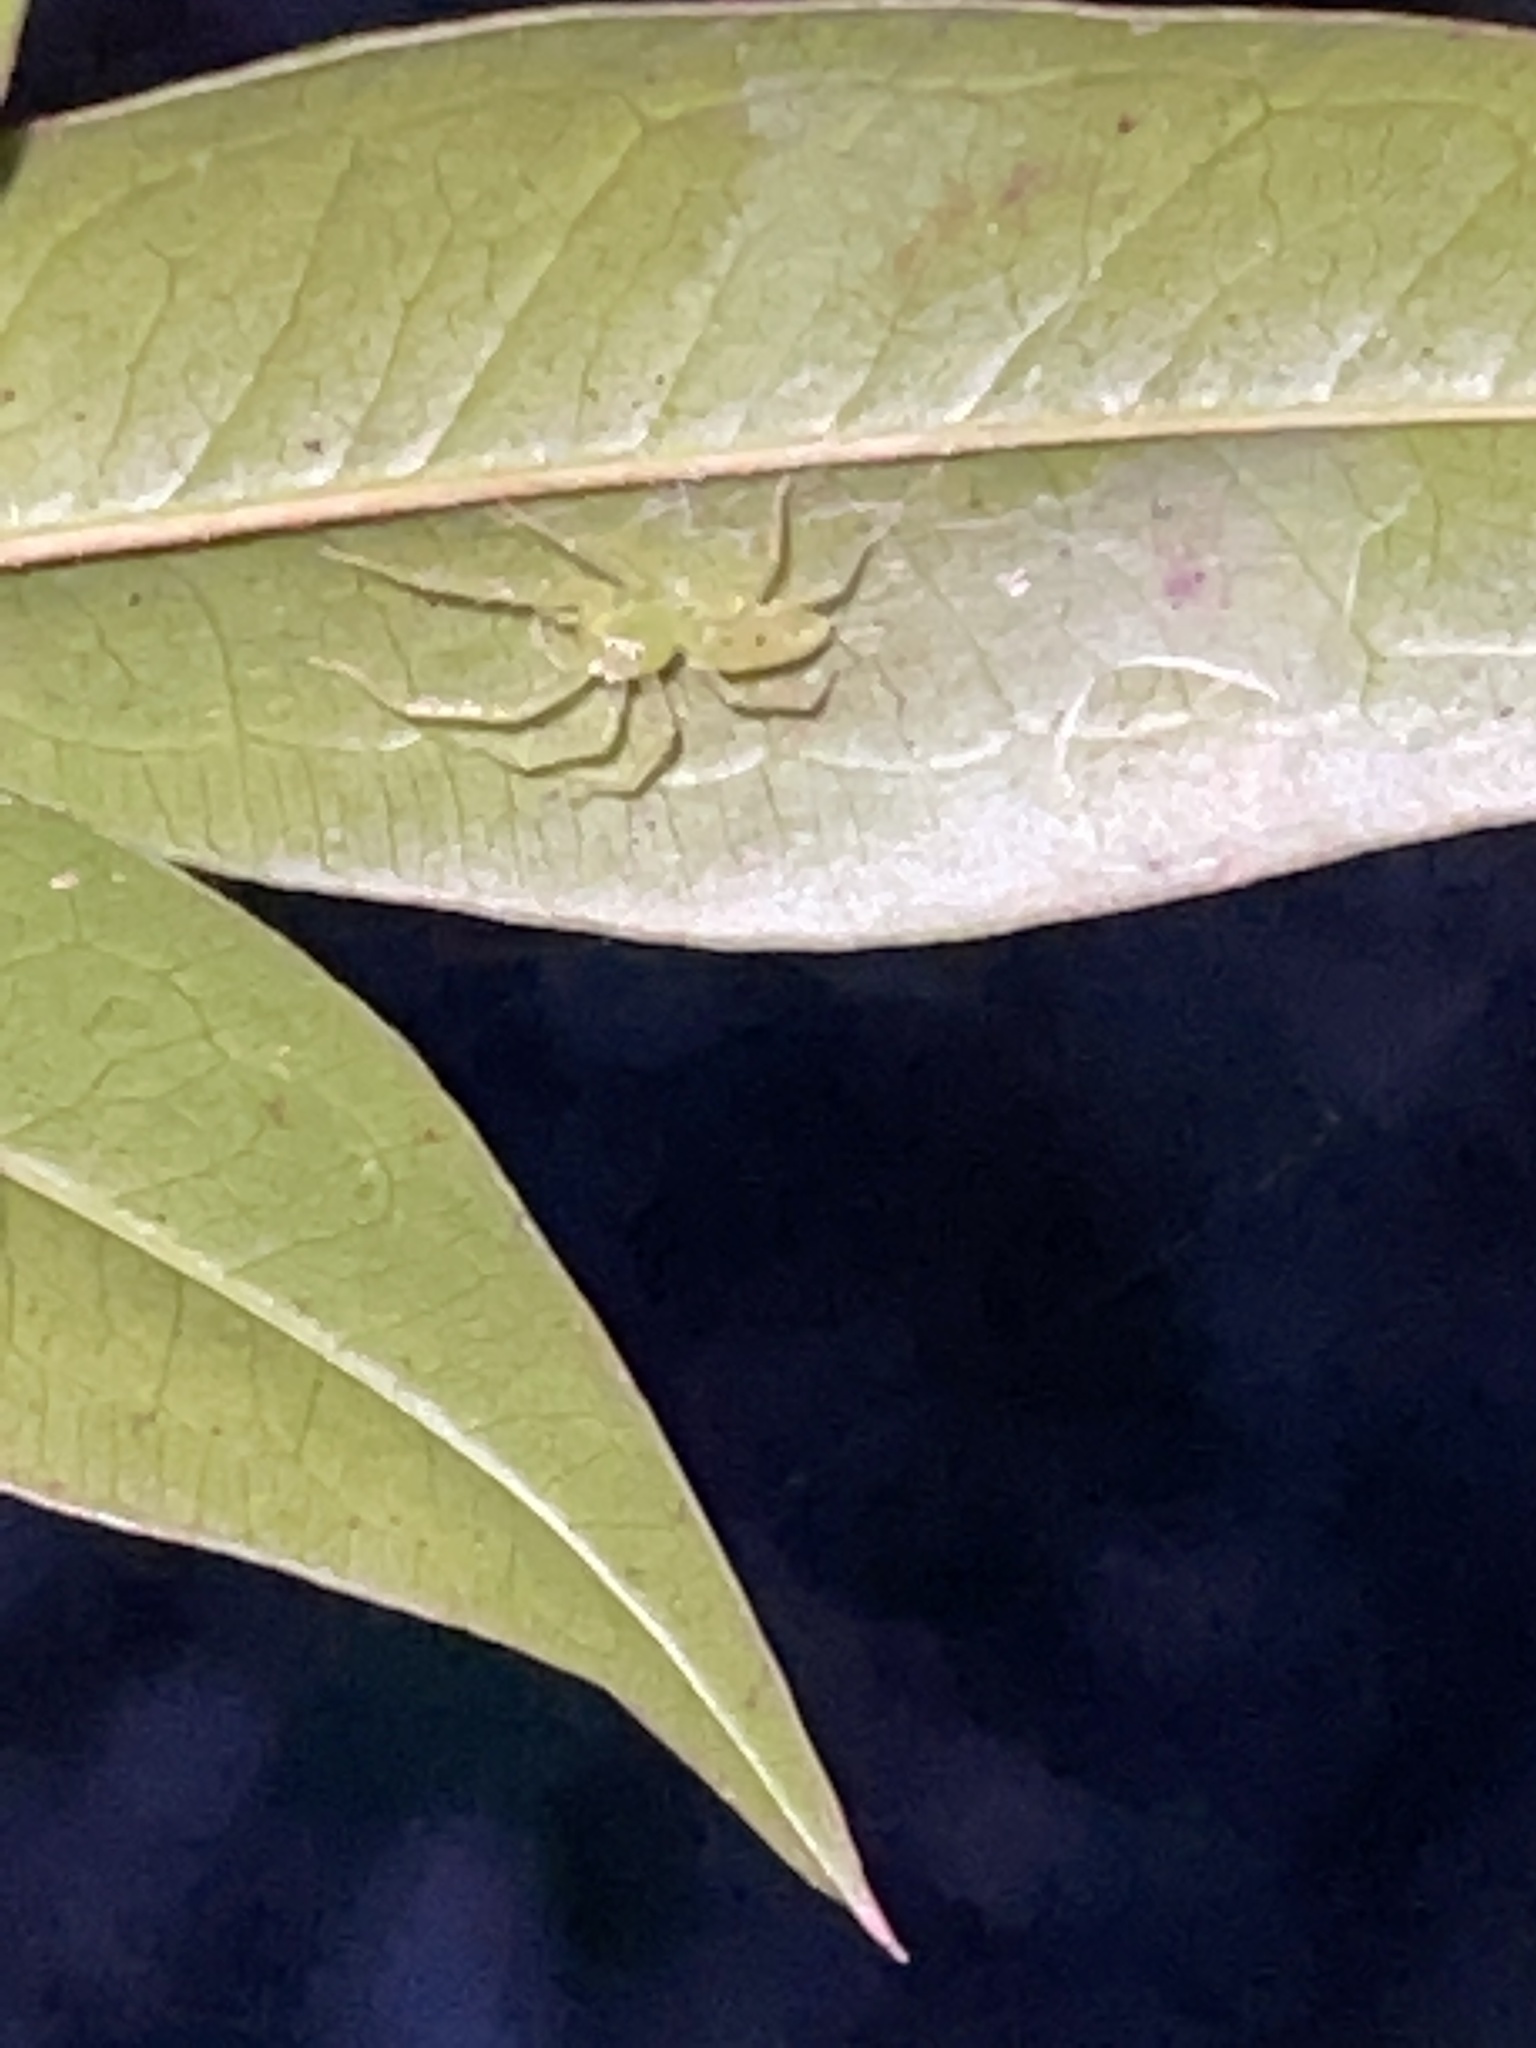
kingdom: Animalia
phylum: Arthropoda
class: Arachnida
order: Araneae
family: Salticidae
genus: Lyssomanes
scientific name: Lyssomanes viridis
